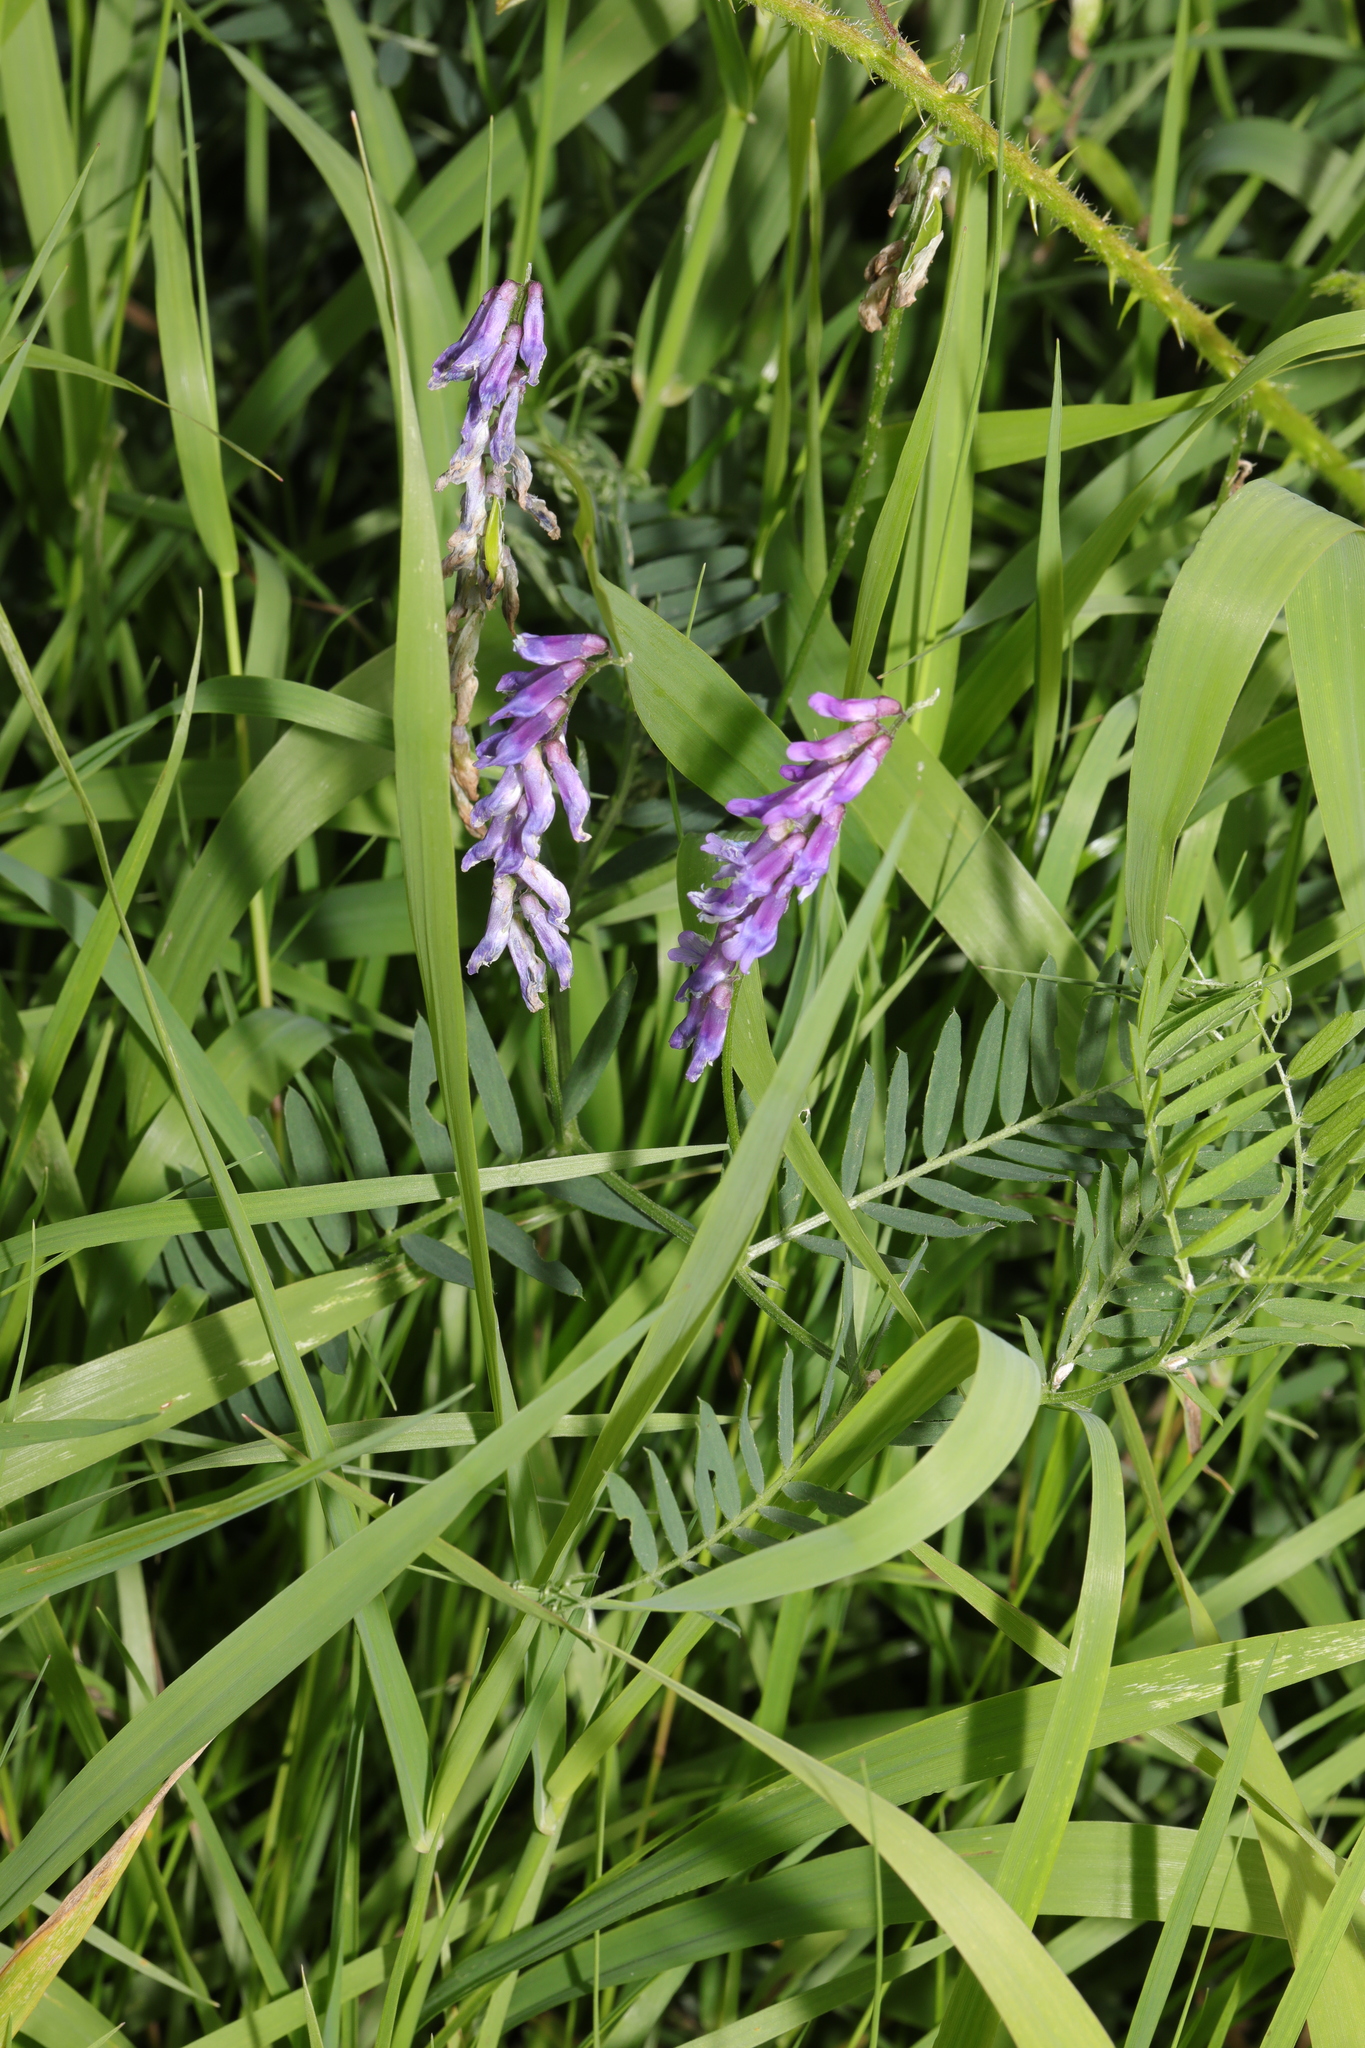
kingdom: Plantae
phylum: Tracheophyta
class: Magnoliopsida
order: Fabales
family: Fabaceae
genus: Vicia
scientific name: Vicia cracca
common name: Bird vetch
